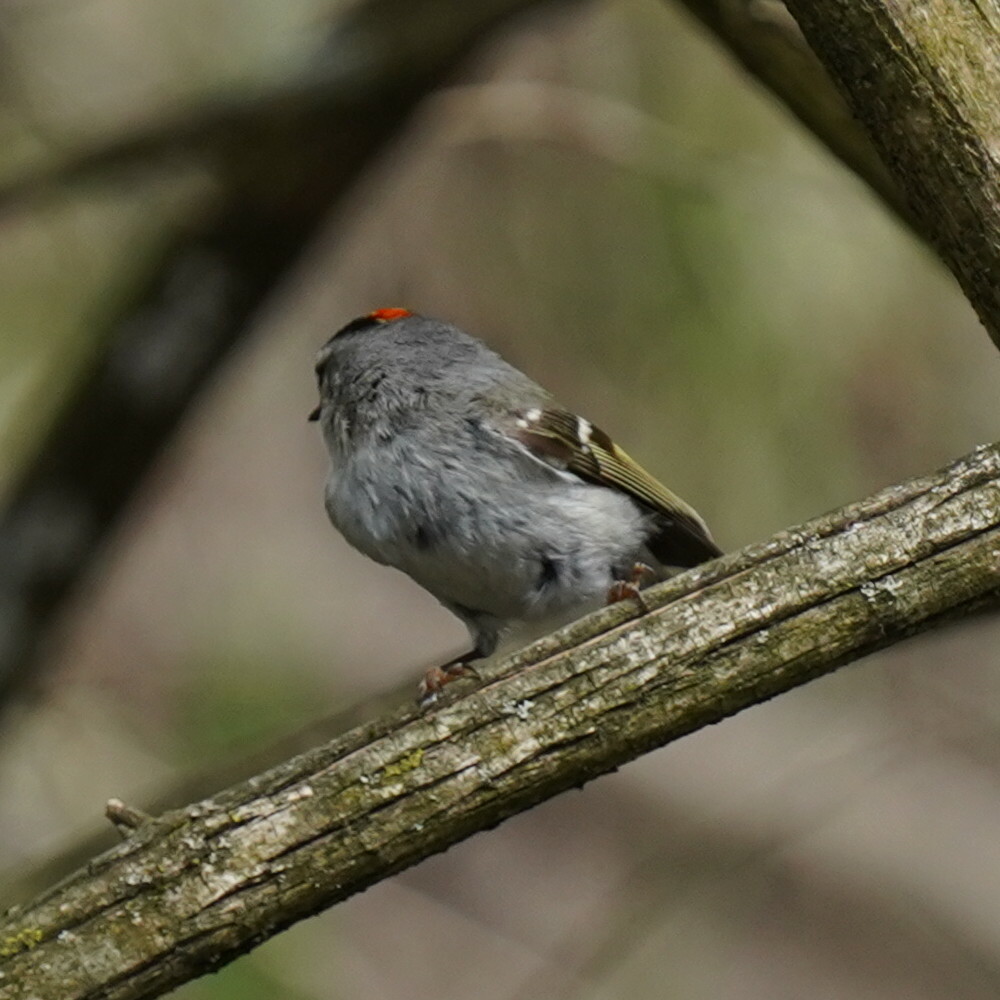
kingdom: Animalia
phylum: Chordata
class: Aves
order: Passeriformes
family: Regulidae
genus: Regulus
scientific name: Regulus calendula
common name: Ruby-crowned kinglet
